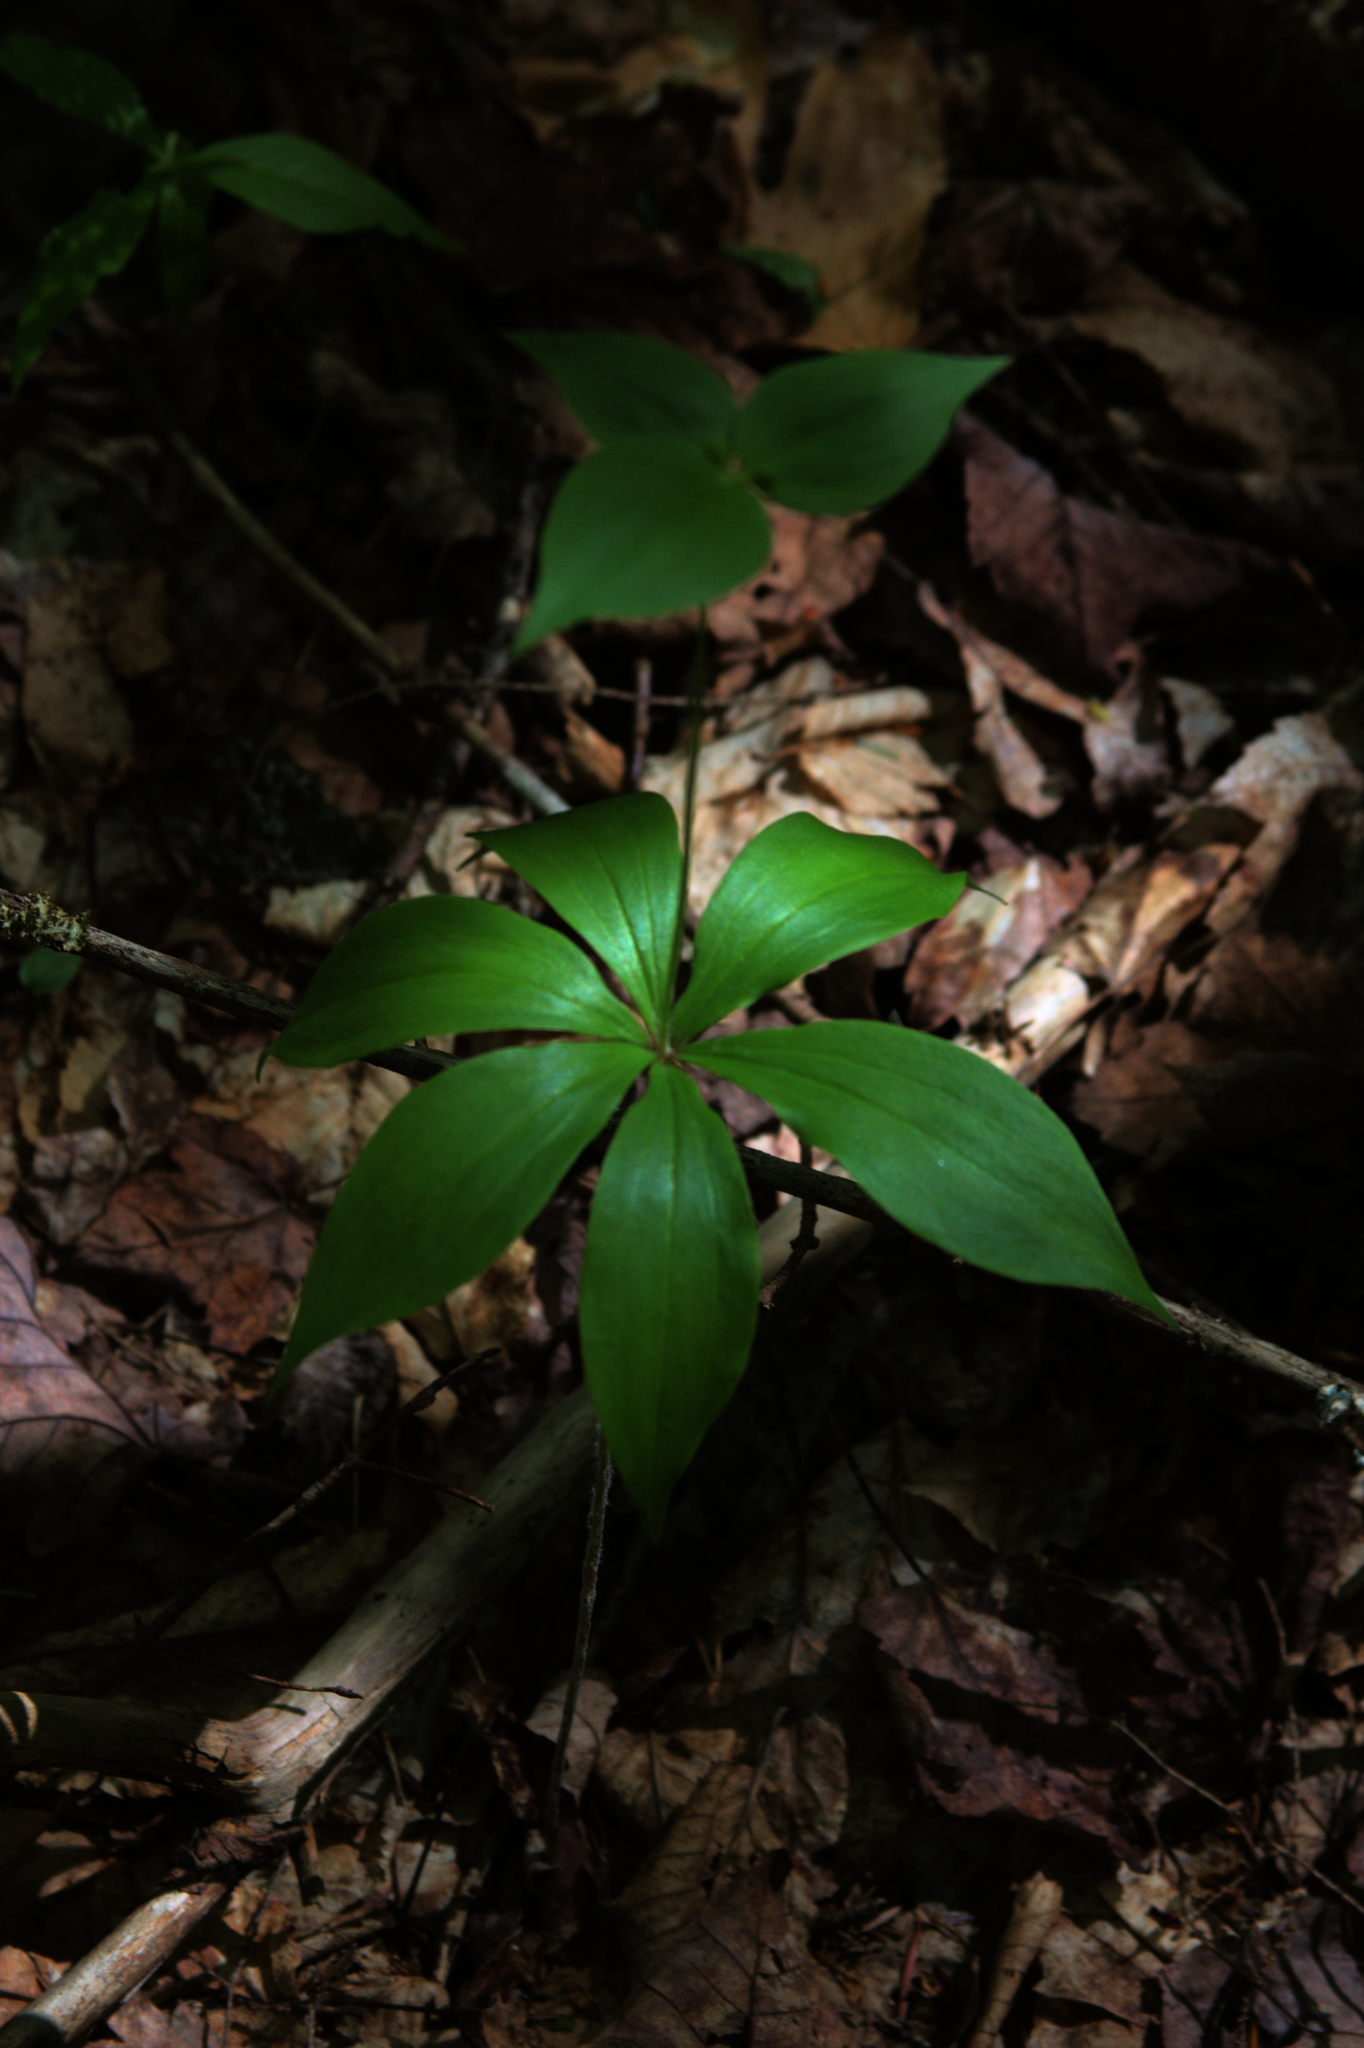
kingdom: Plantae
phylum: Tracheophyta
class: Liliopsida
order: Liliales
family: Liliaceae
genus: Medeola
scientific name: Medeola virginiana
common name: Indian cucumber-root
